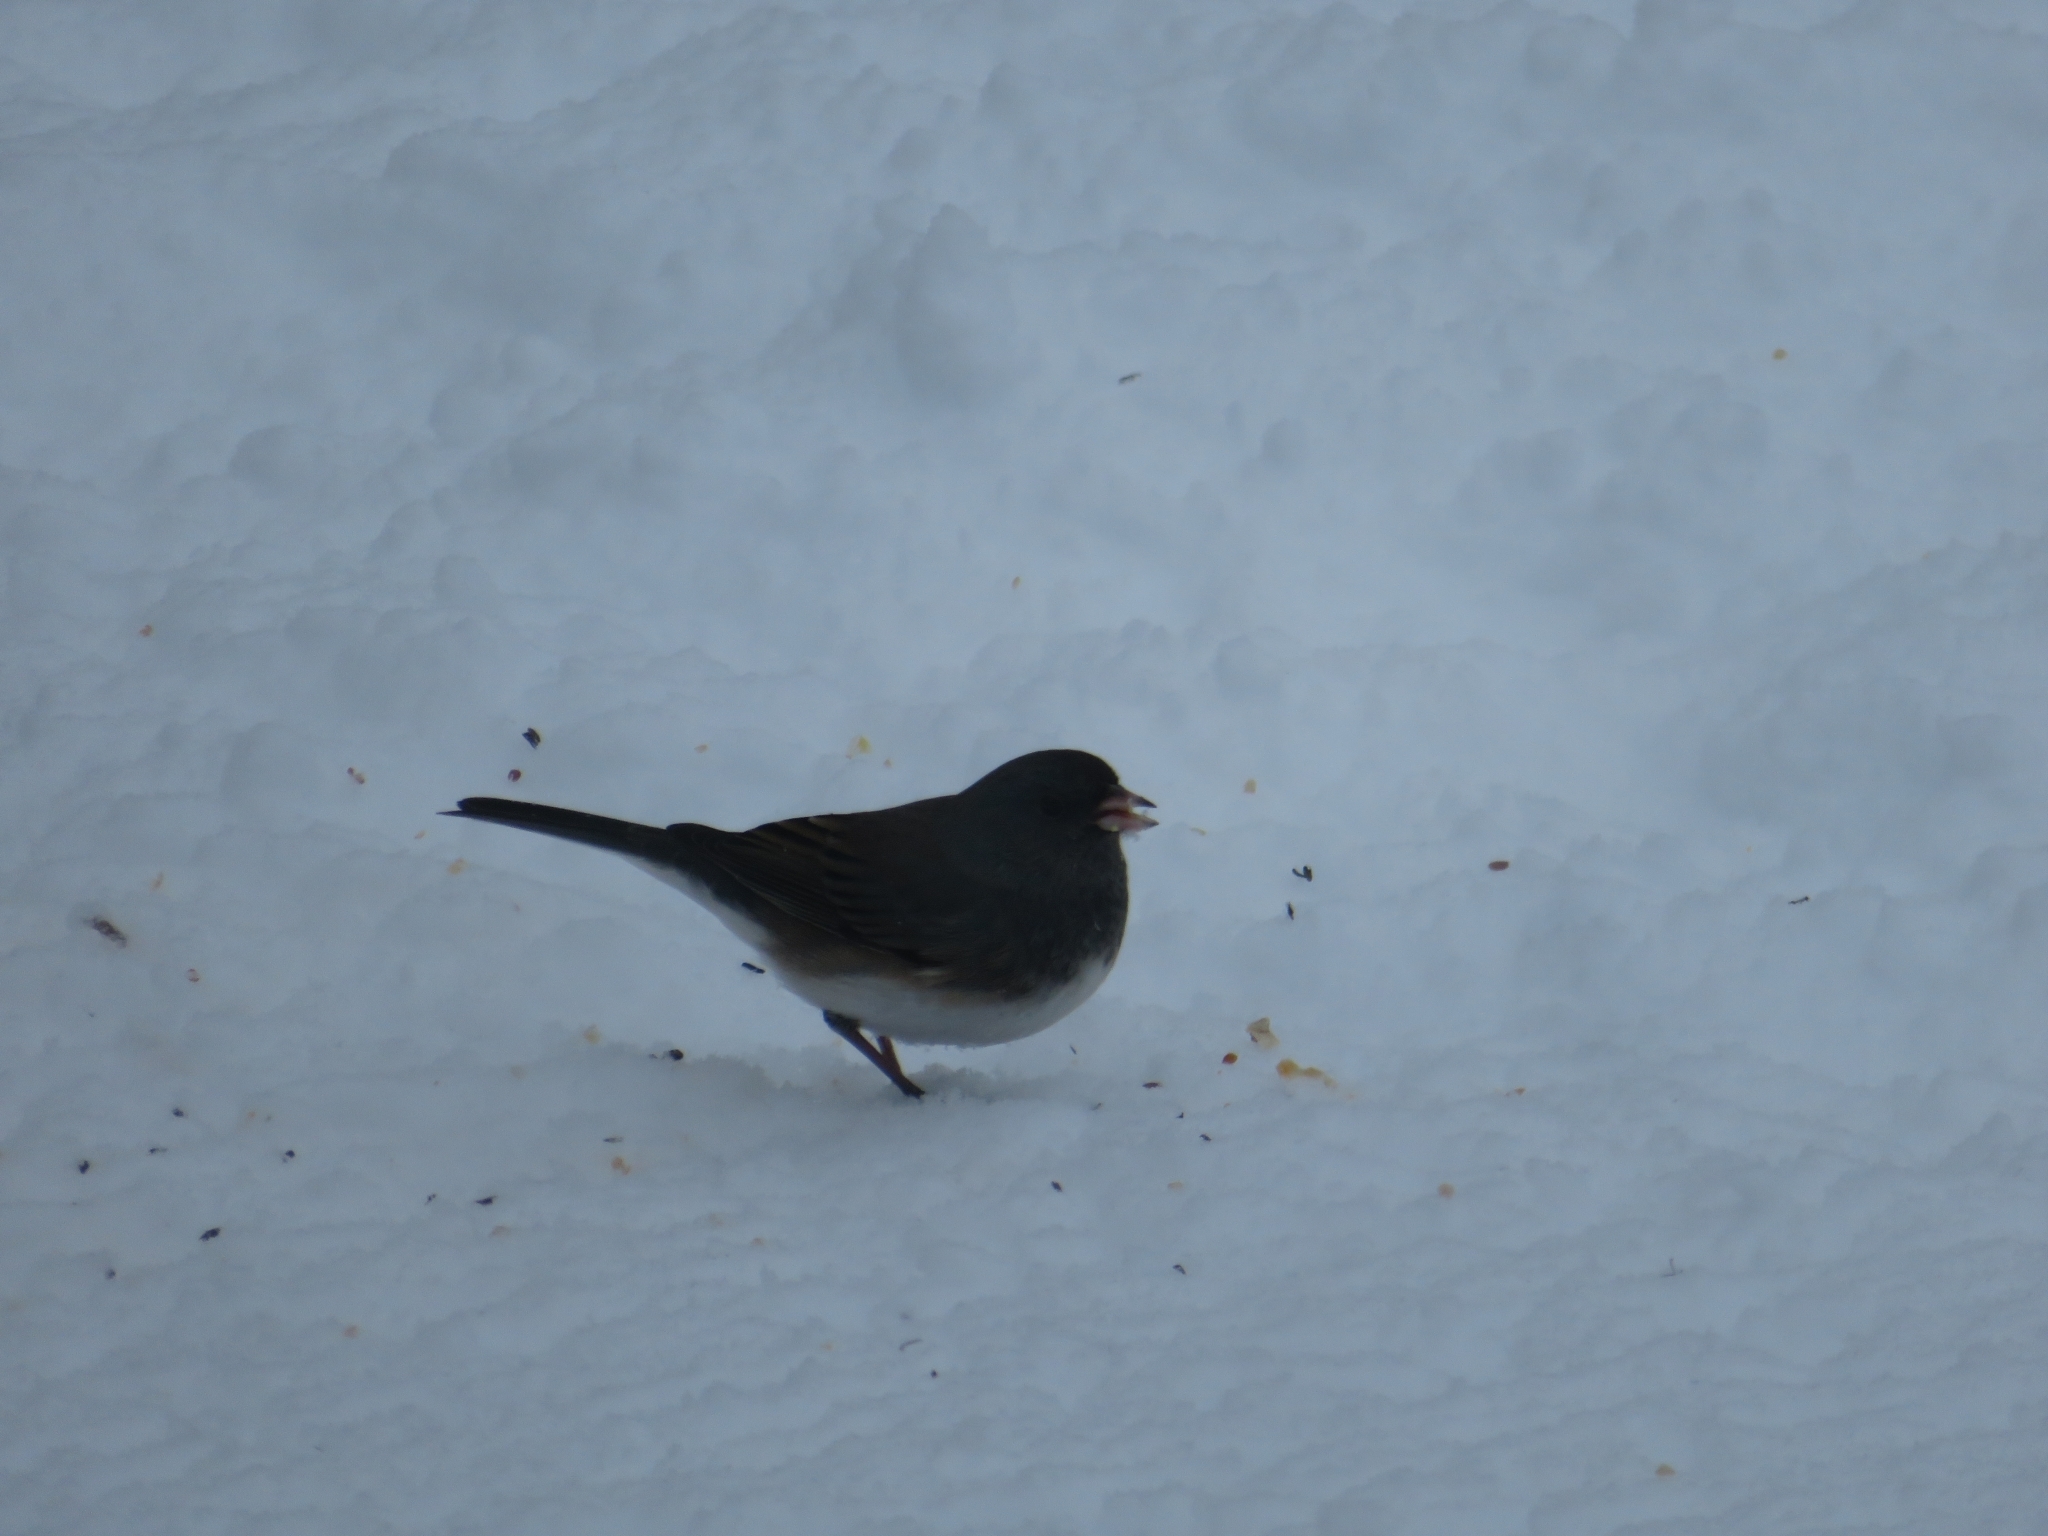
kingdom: Animalia
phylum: Chordata
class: Aves
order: Passeriformes
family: Passerellidae
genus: Junco
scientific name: Junco hyemalis
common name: Dark-eyed junco
